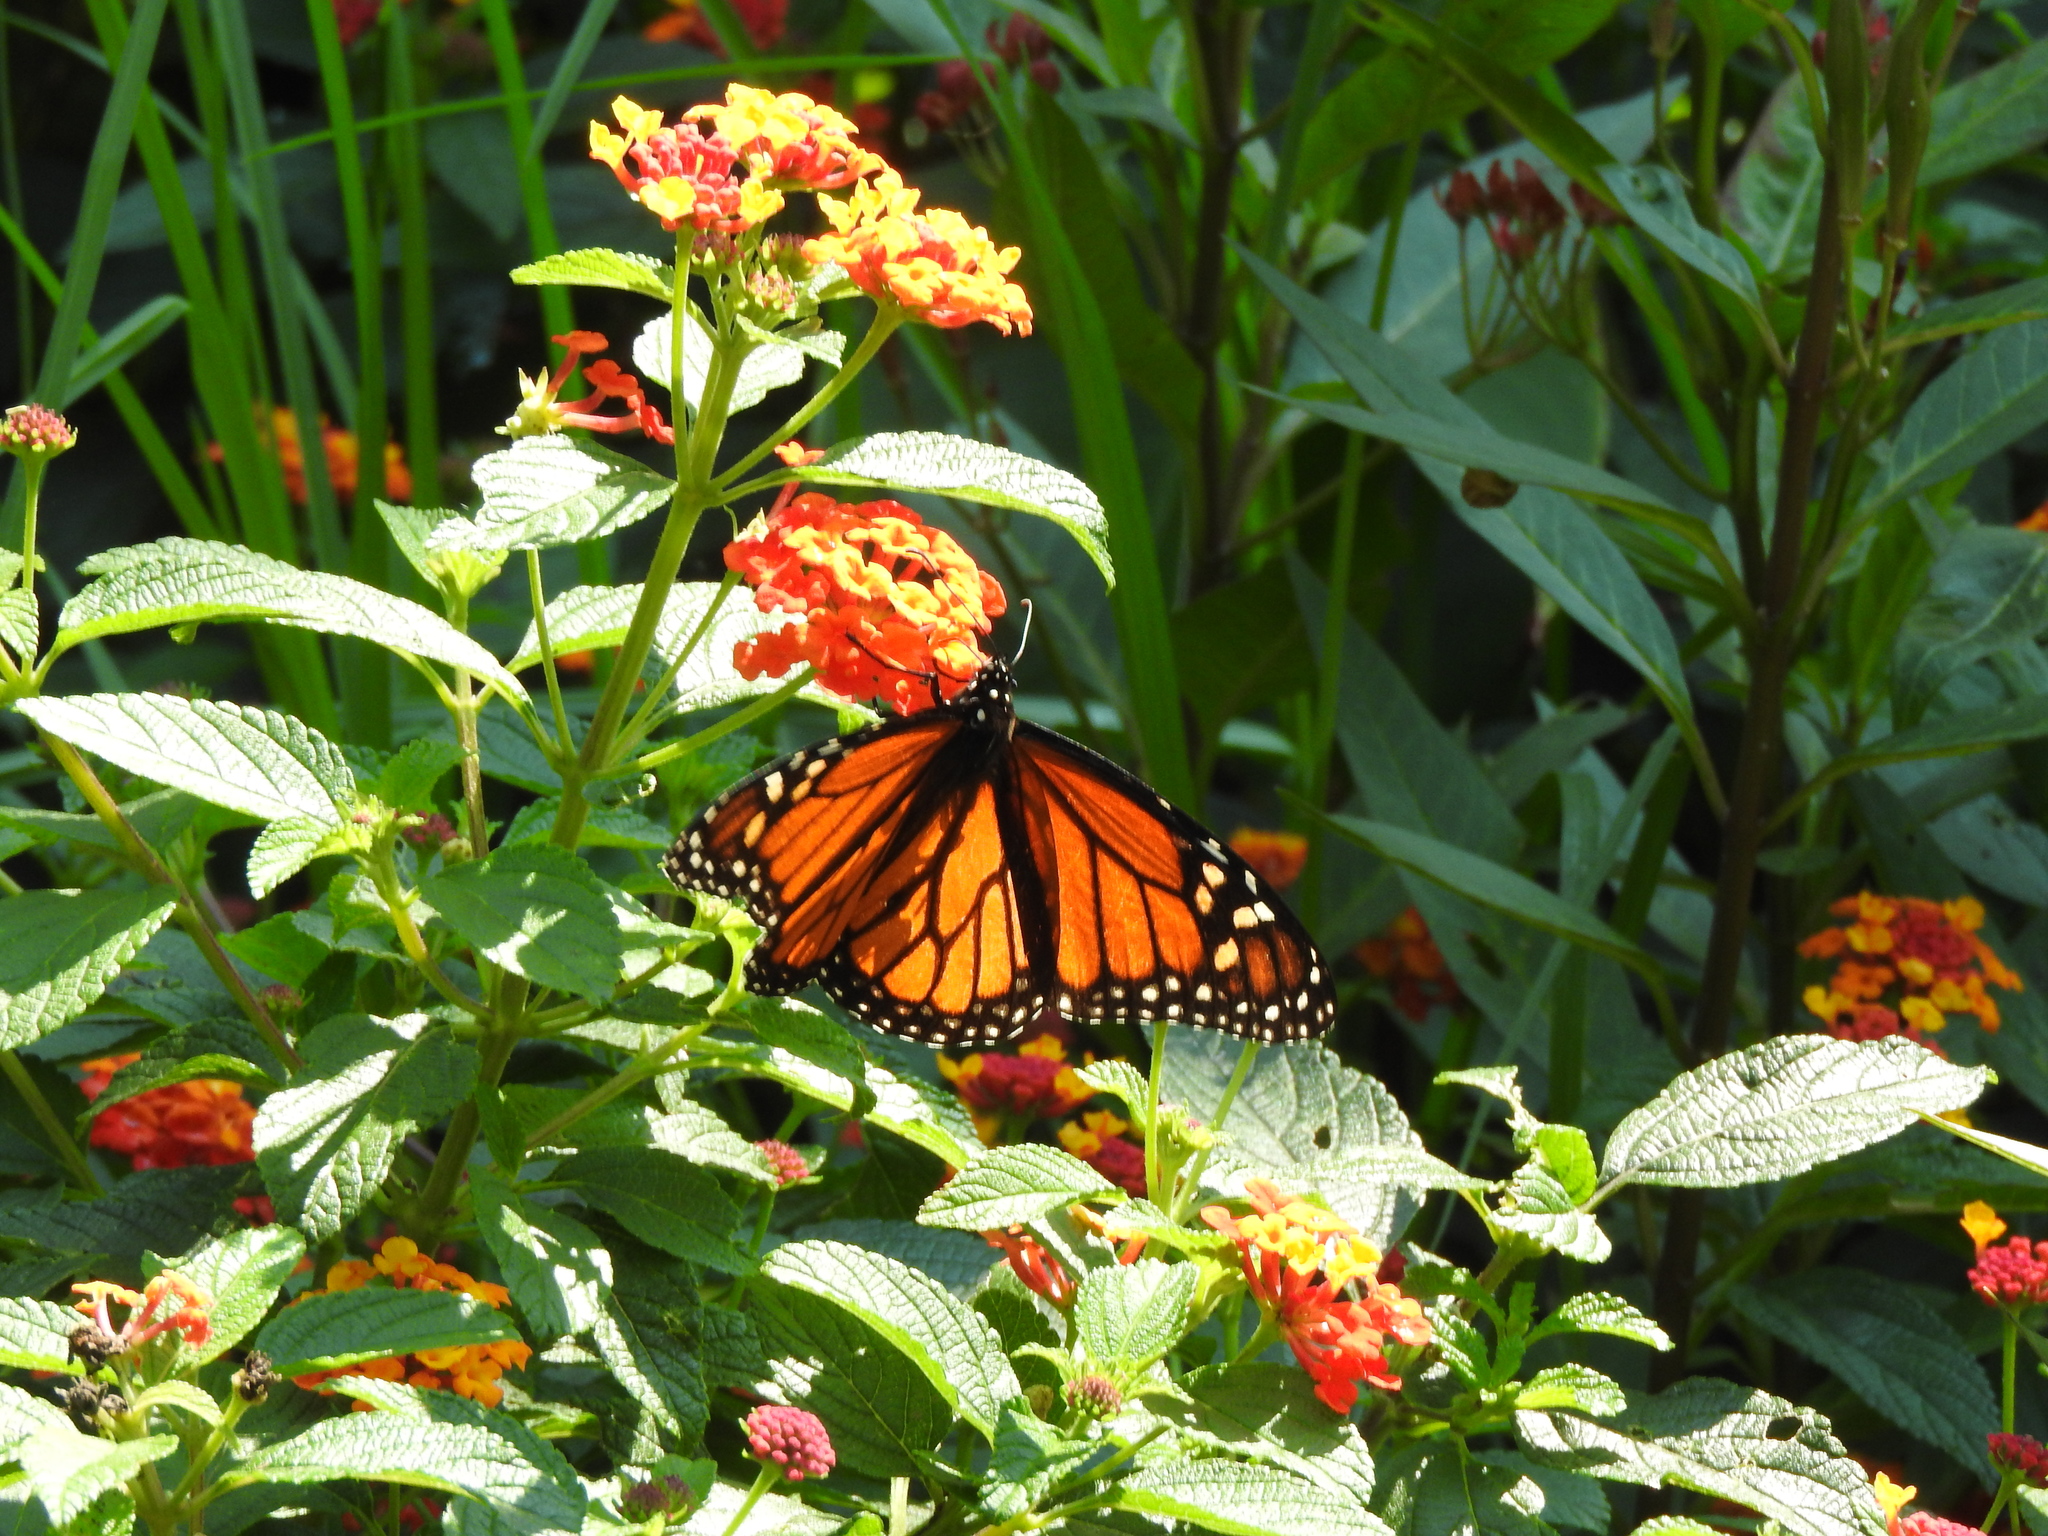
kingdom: Animalia
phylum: Arthropoda
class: Insecta
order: Lepidoptera
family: Nymphalidae
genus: Danaus
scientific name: Danaus plexippus
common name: Monarch
